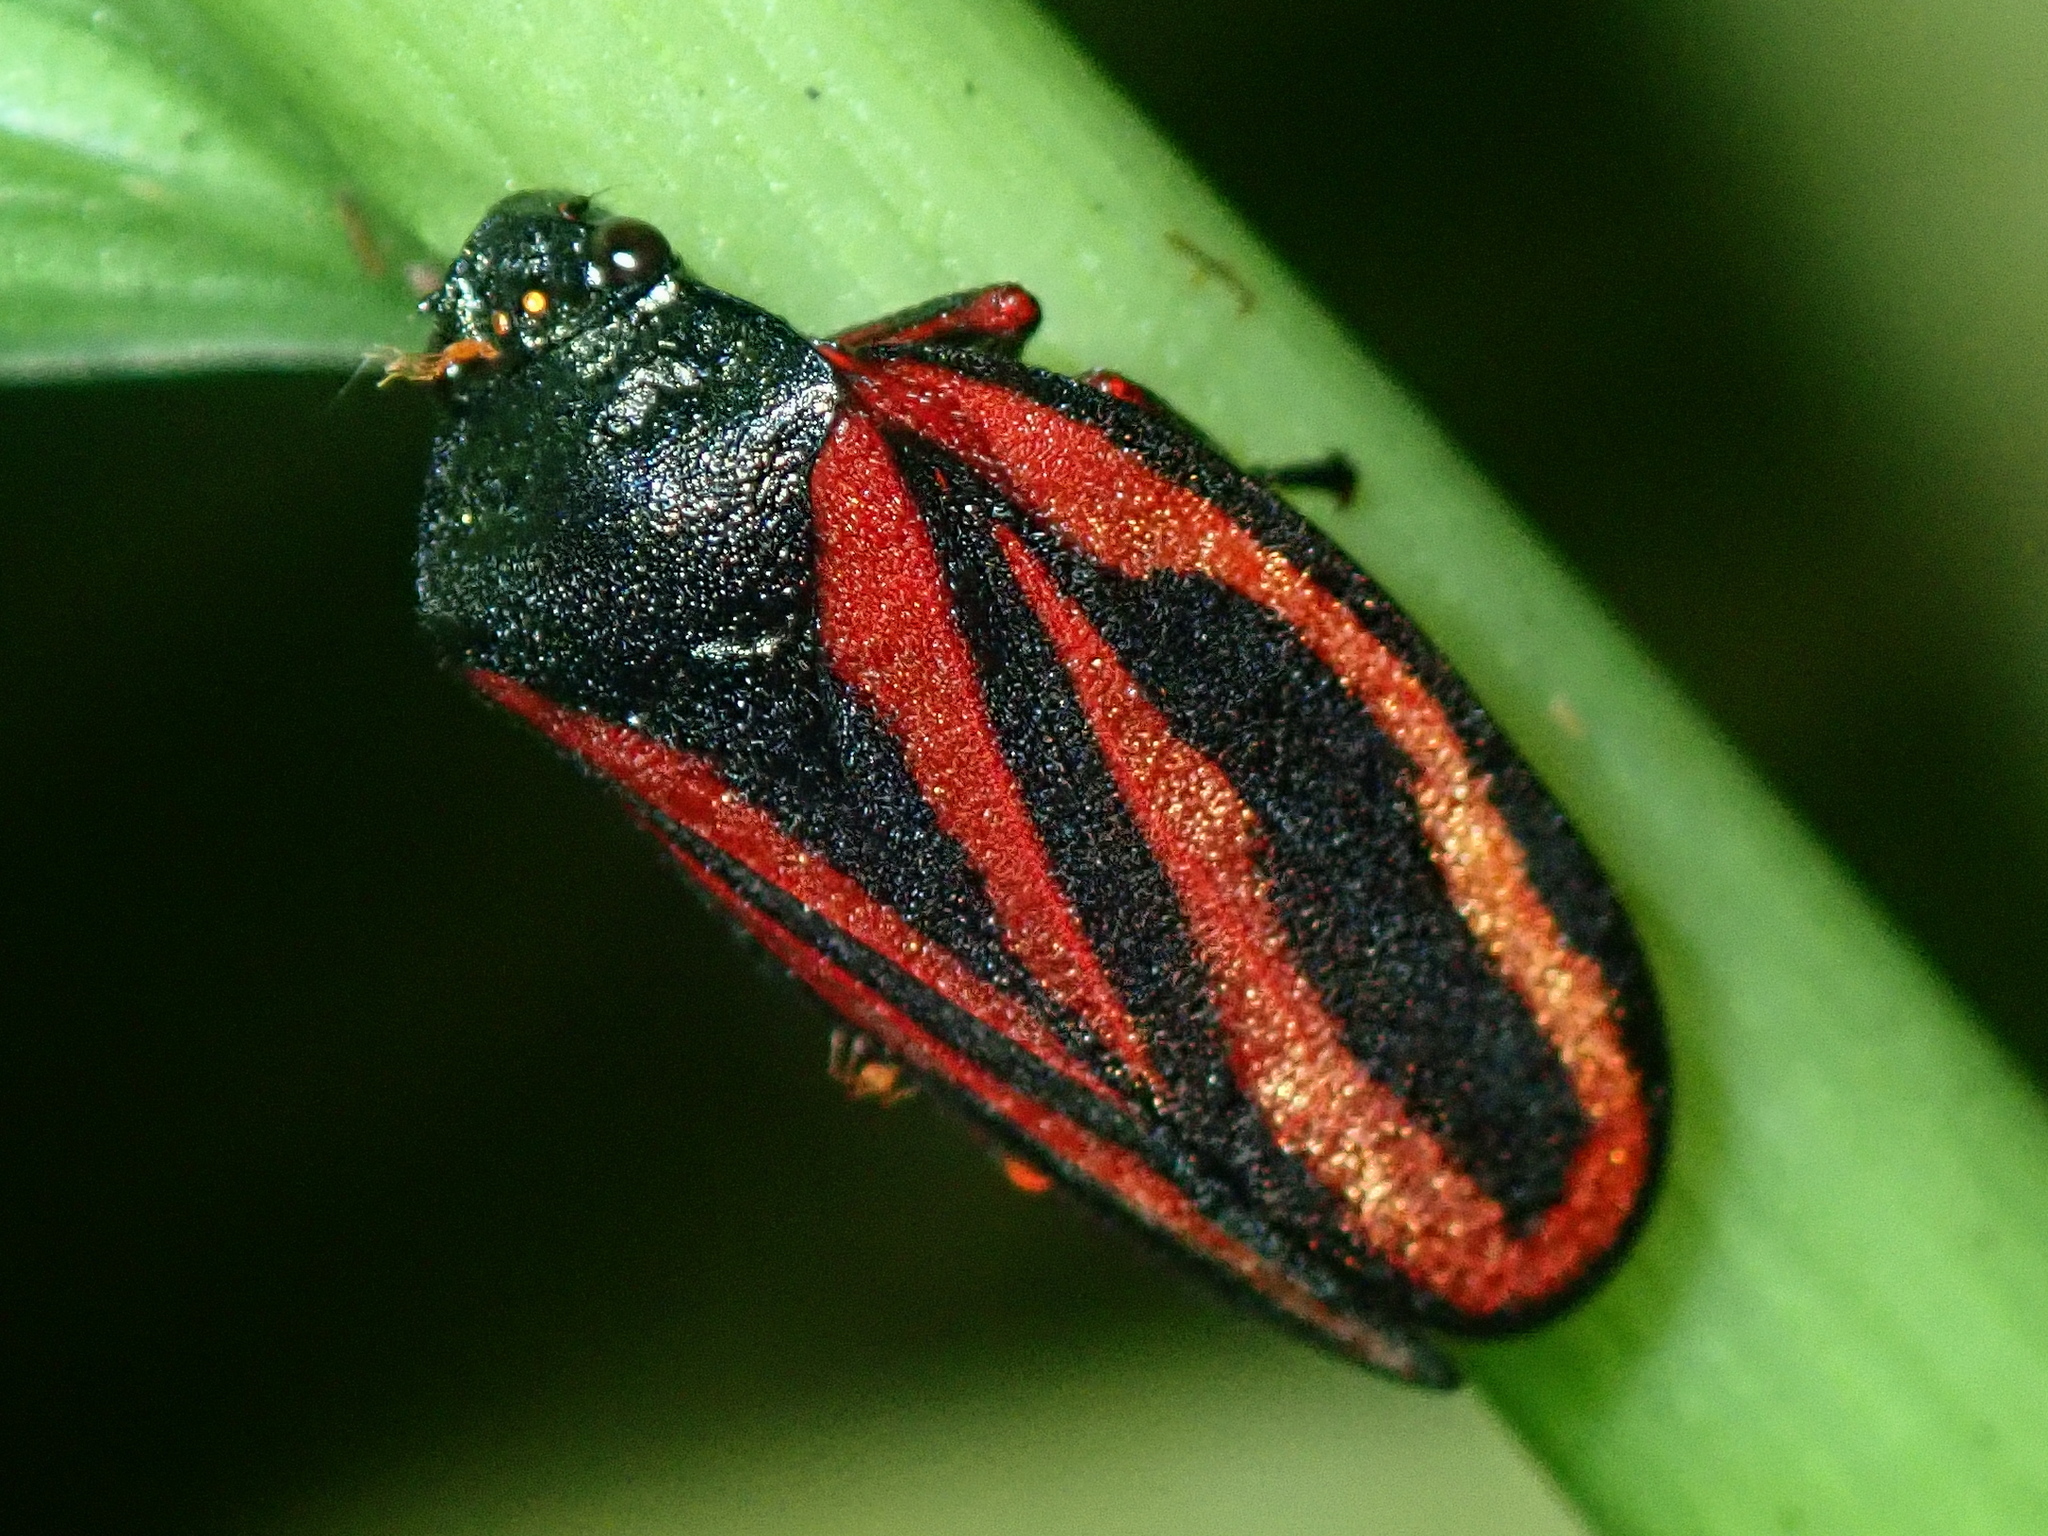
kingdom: Animalia
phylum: Arthropoda
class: Insecta
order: Hemiptera
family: Cercopidae
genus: Mahanarva
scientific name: Mahanarva liturata
